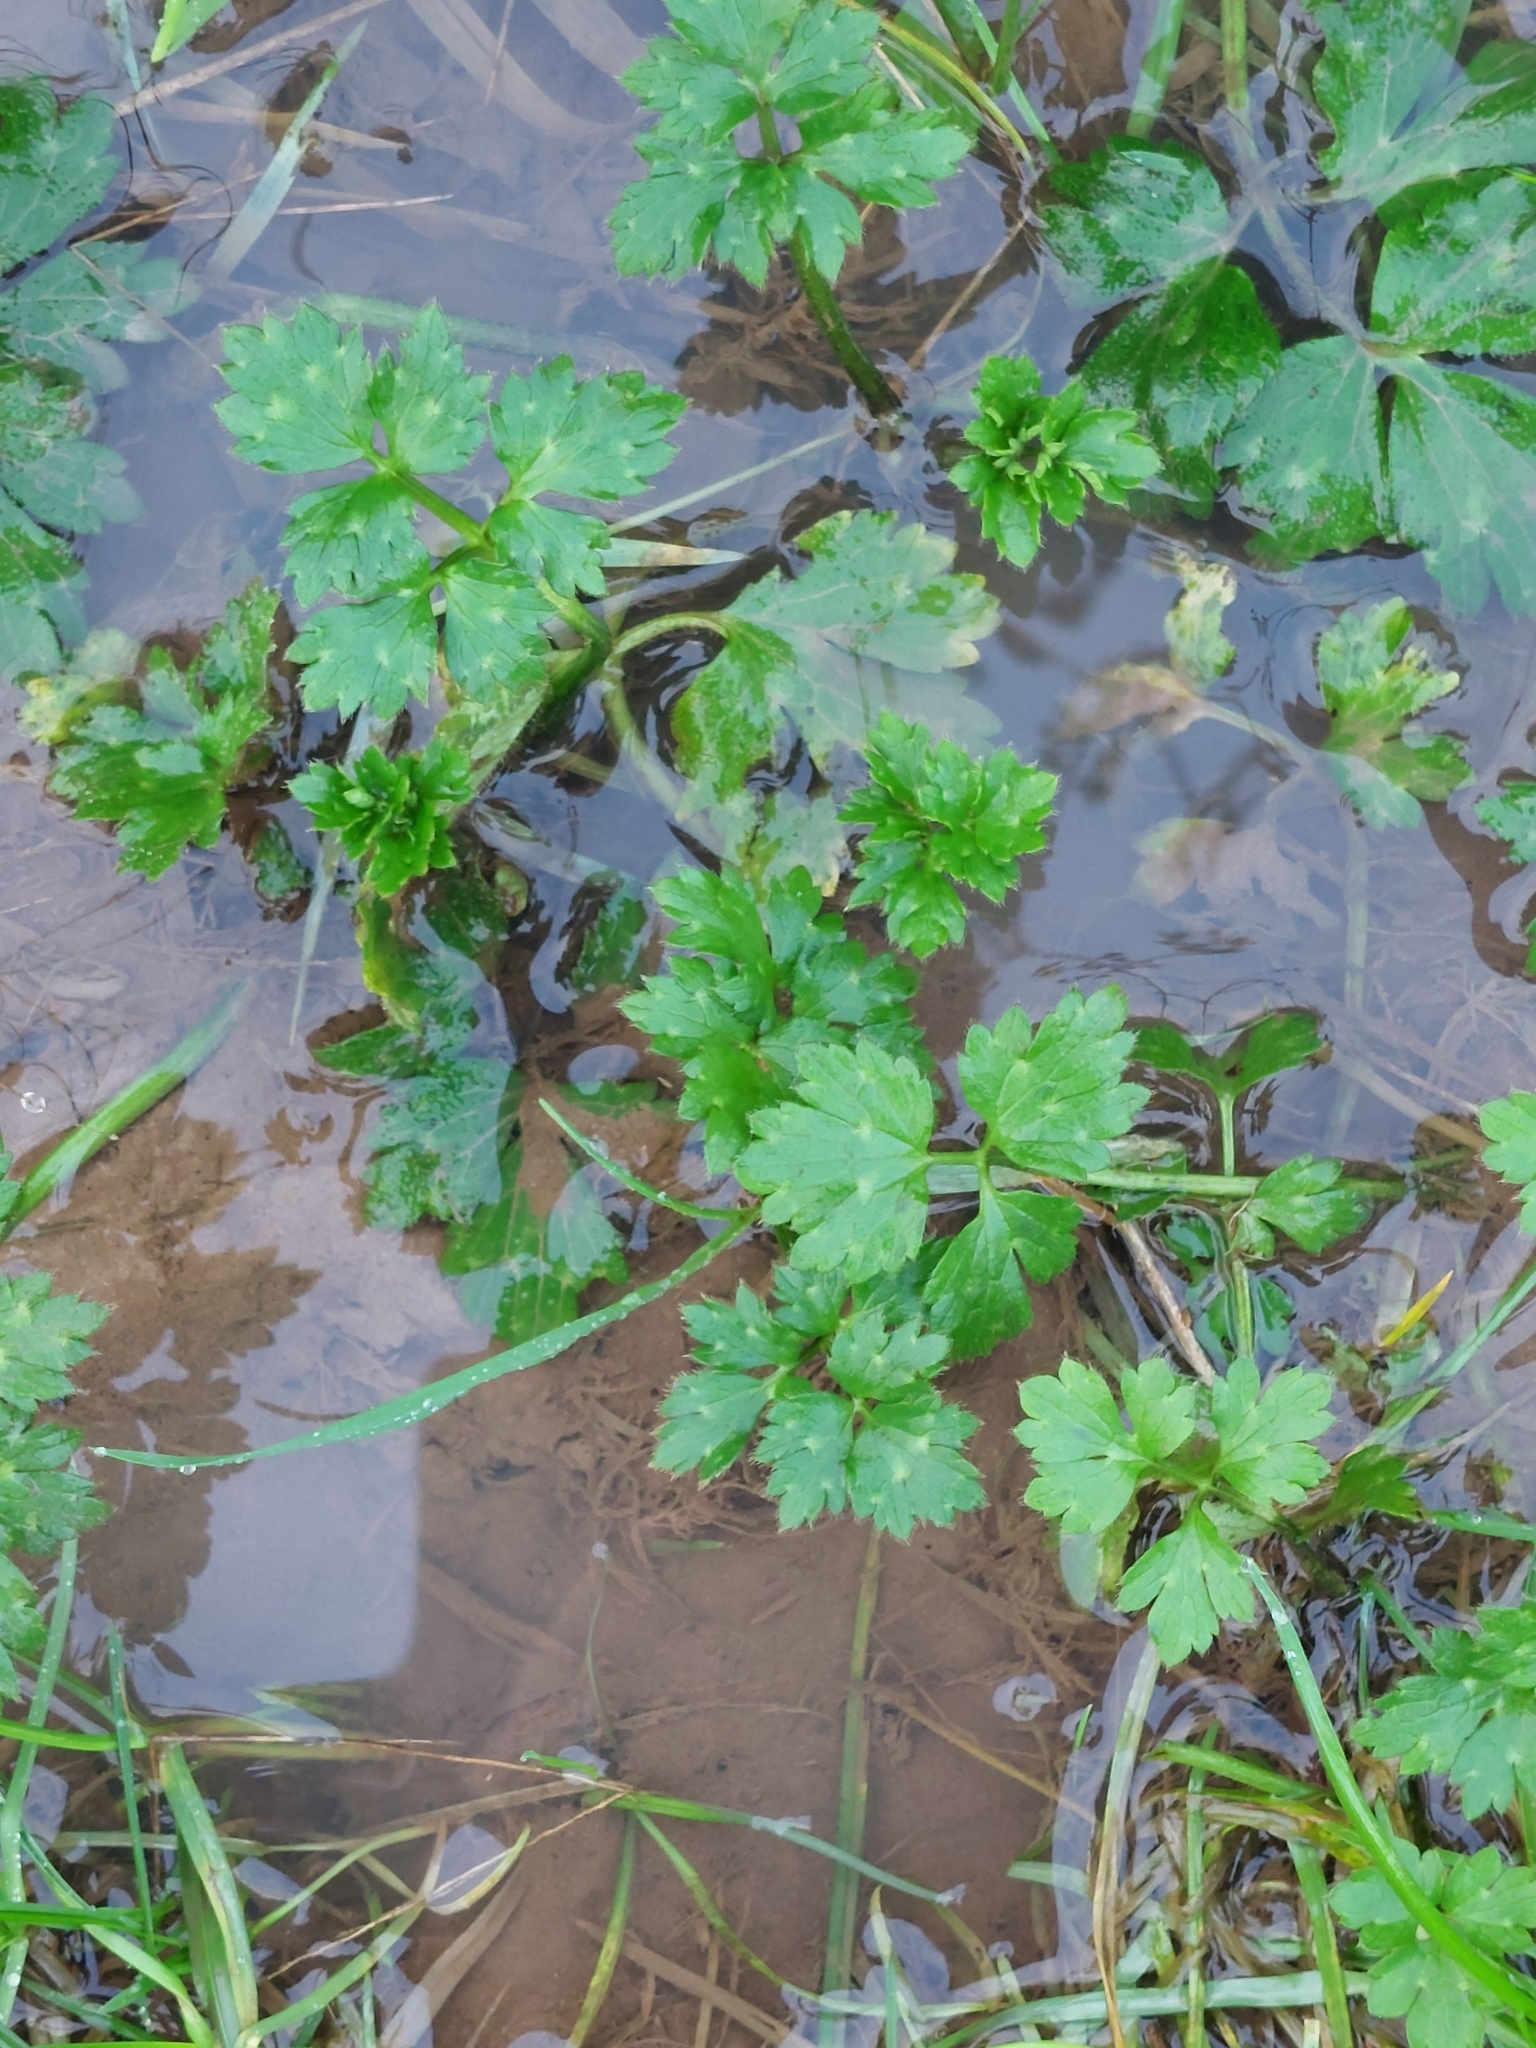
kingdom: Plantae
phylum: Tracheophyta
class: Magnoliopsida
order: Ranunculales
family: Ranunculaceae
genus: Ranunculus
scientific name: Ranunculus repens
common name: Creeping buttercup
